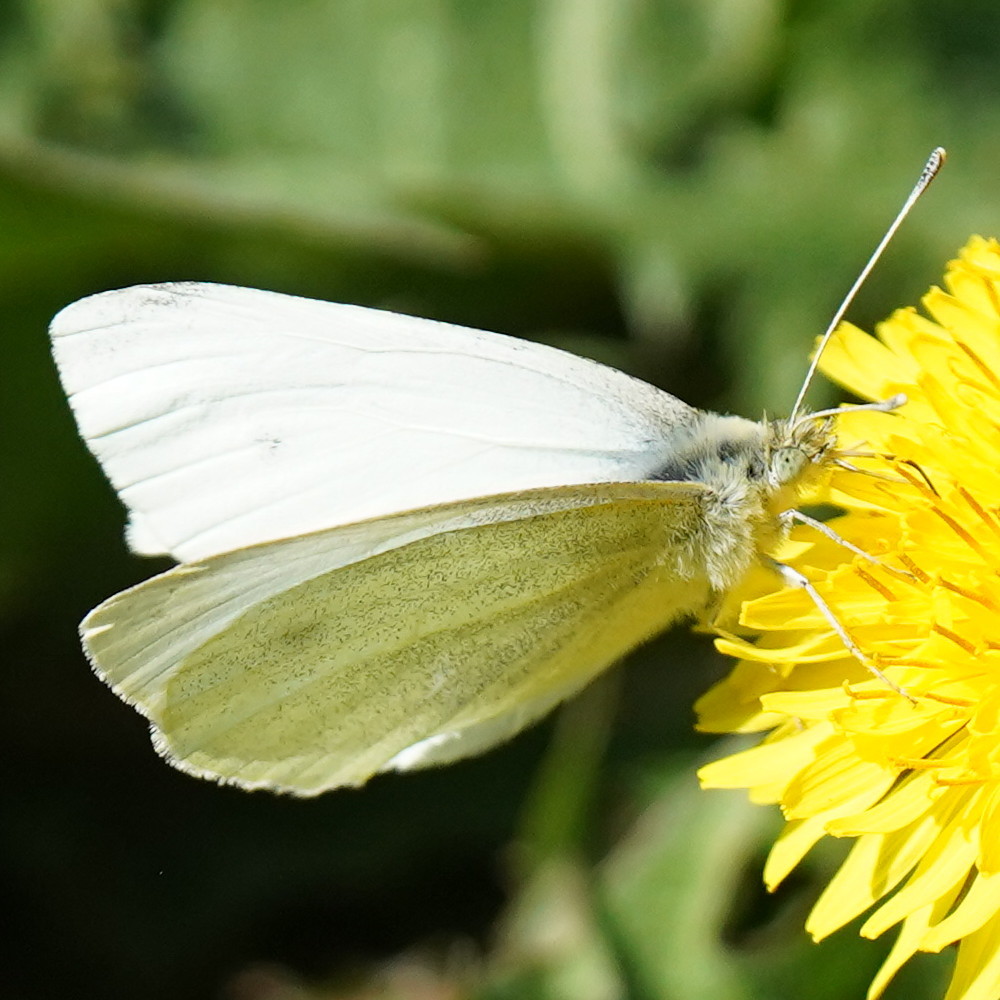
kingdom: Animalia
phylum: Arthropoda
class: Insecta
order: Lepidoptera
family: Pieridae
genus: Pieris
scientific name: Pieris rapae
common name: Small white
